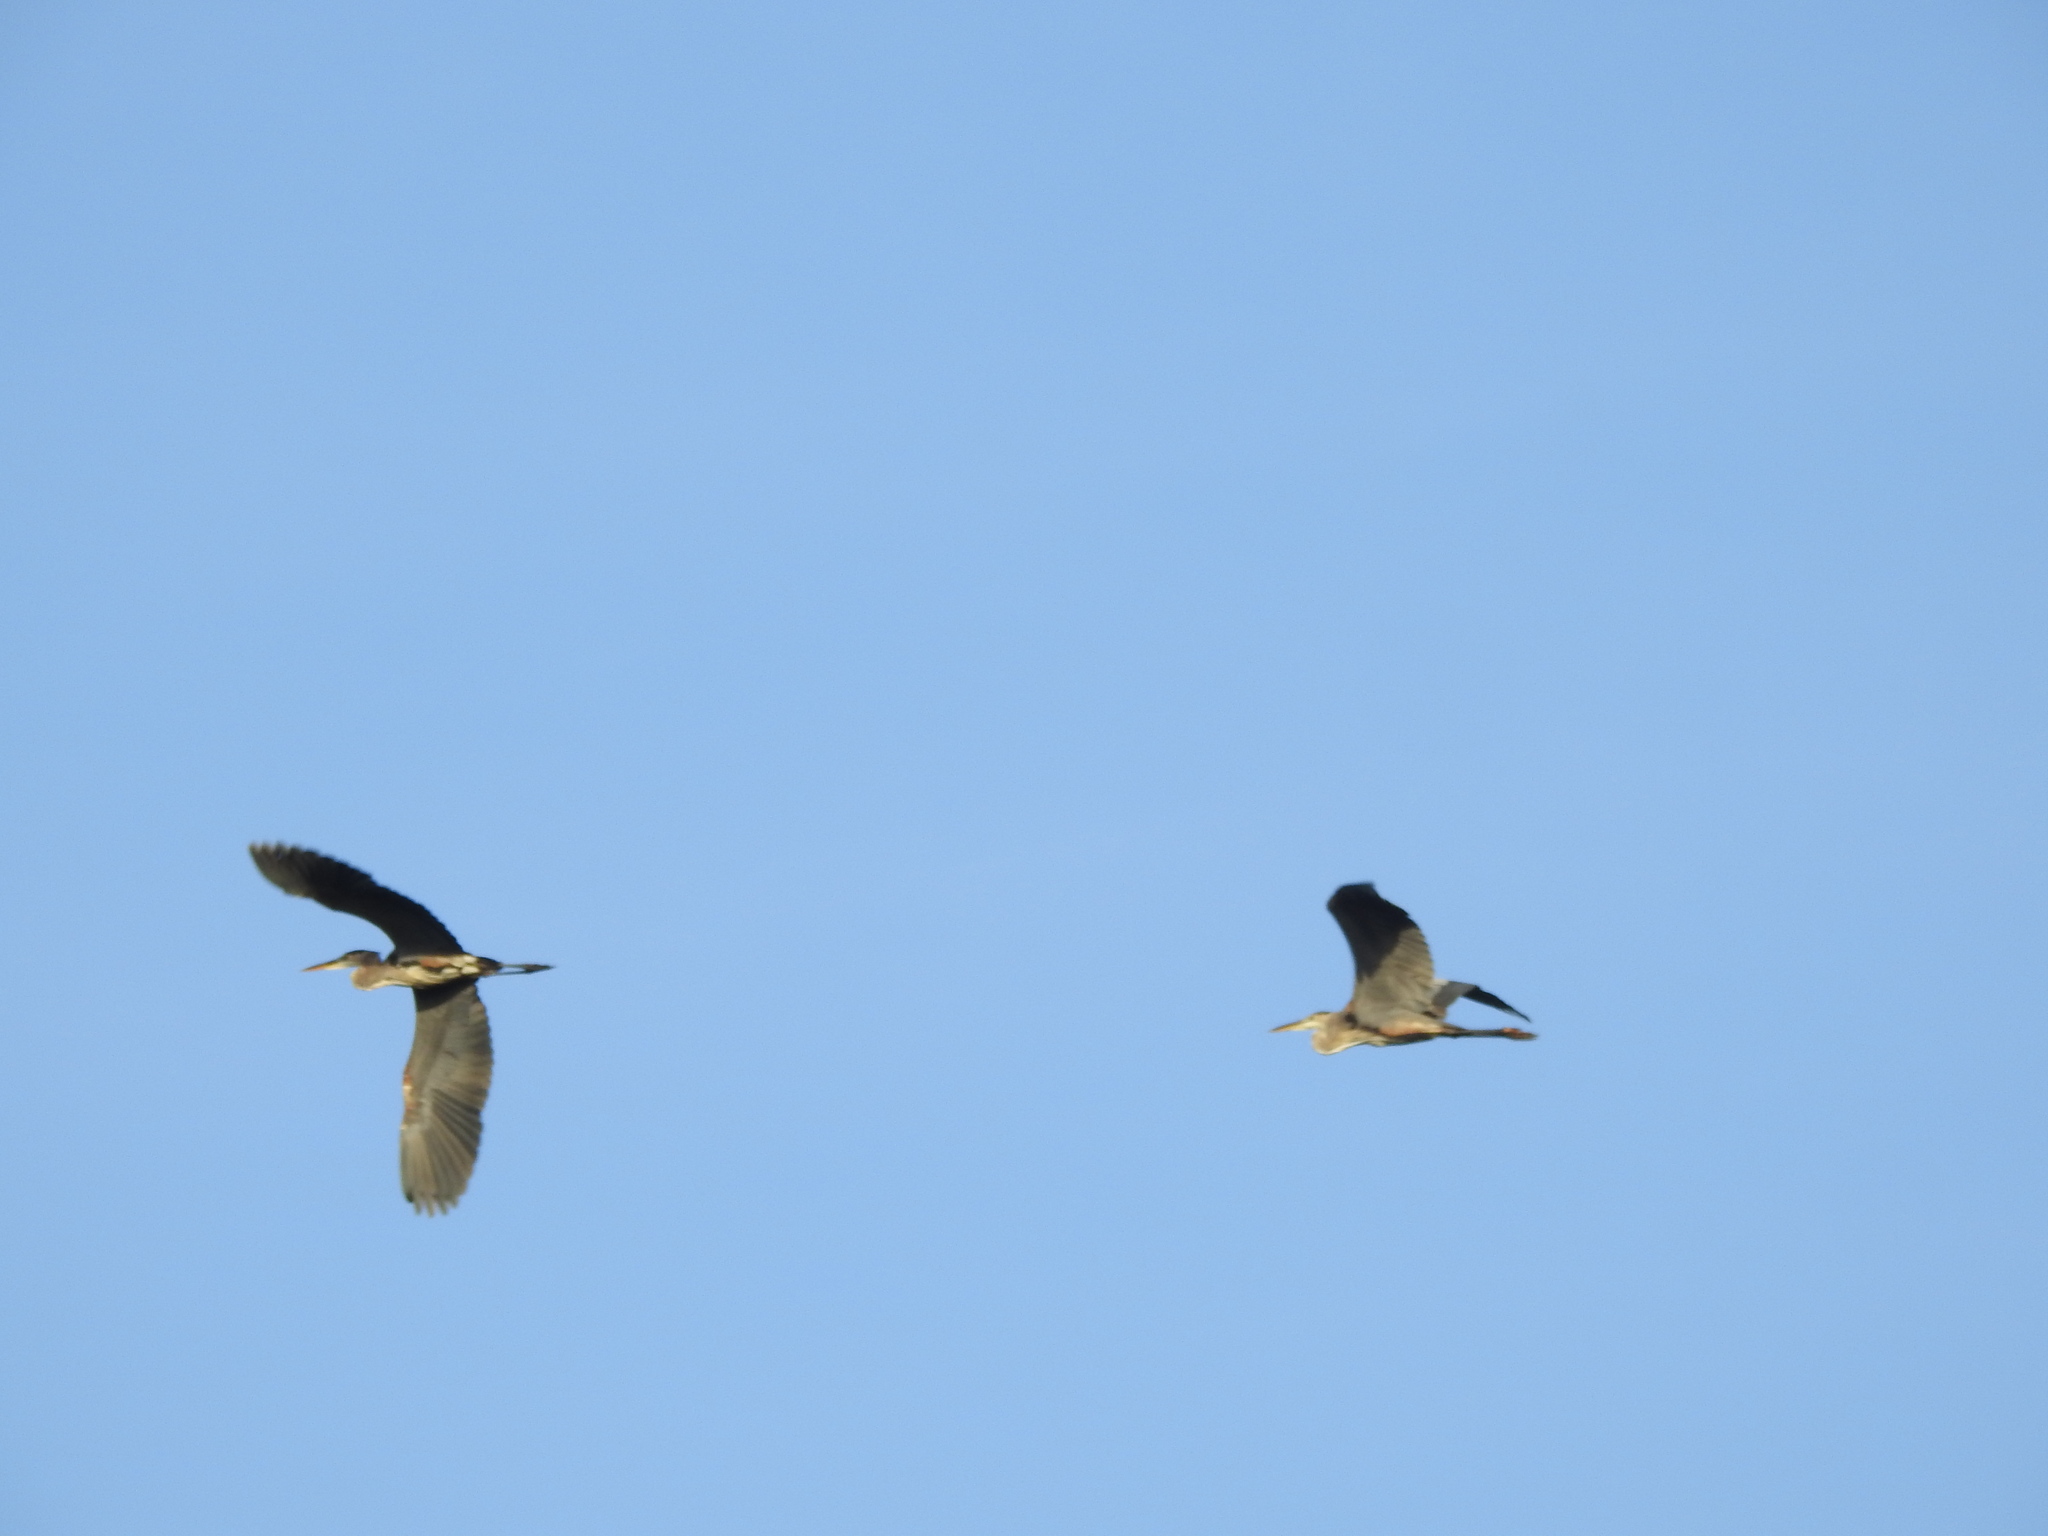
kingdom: Animalia
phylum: Chordata
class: Aves
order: Pelecaniformes
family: Ardeidae
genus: Ardea
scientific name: Ardea herodias
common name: Great blue heron
